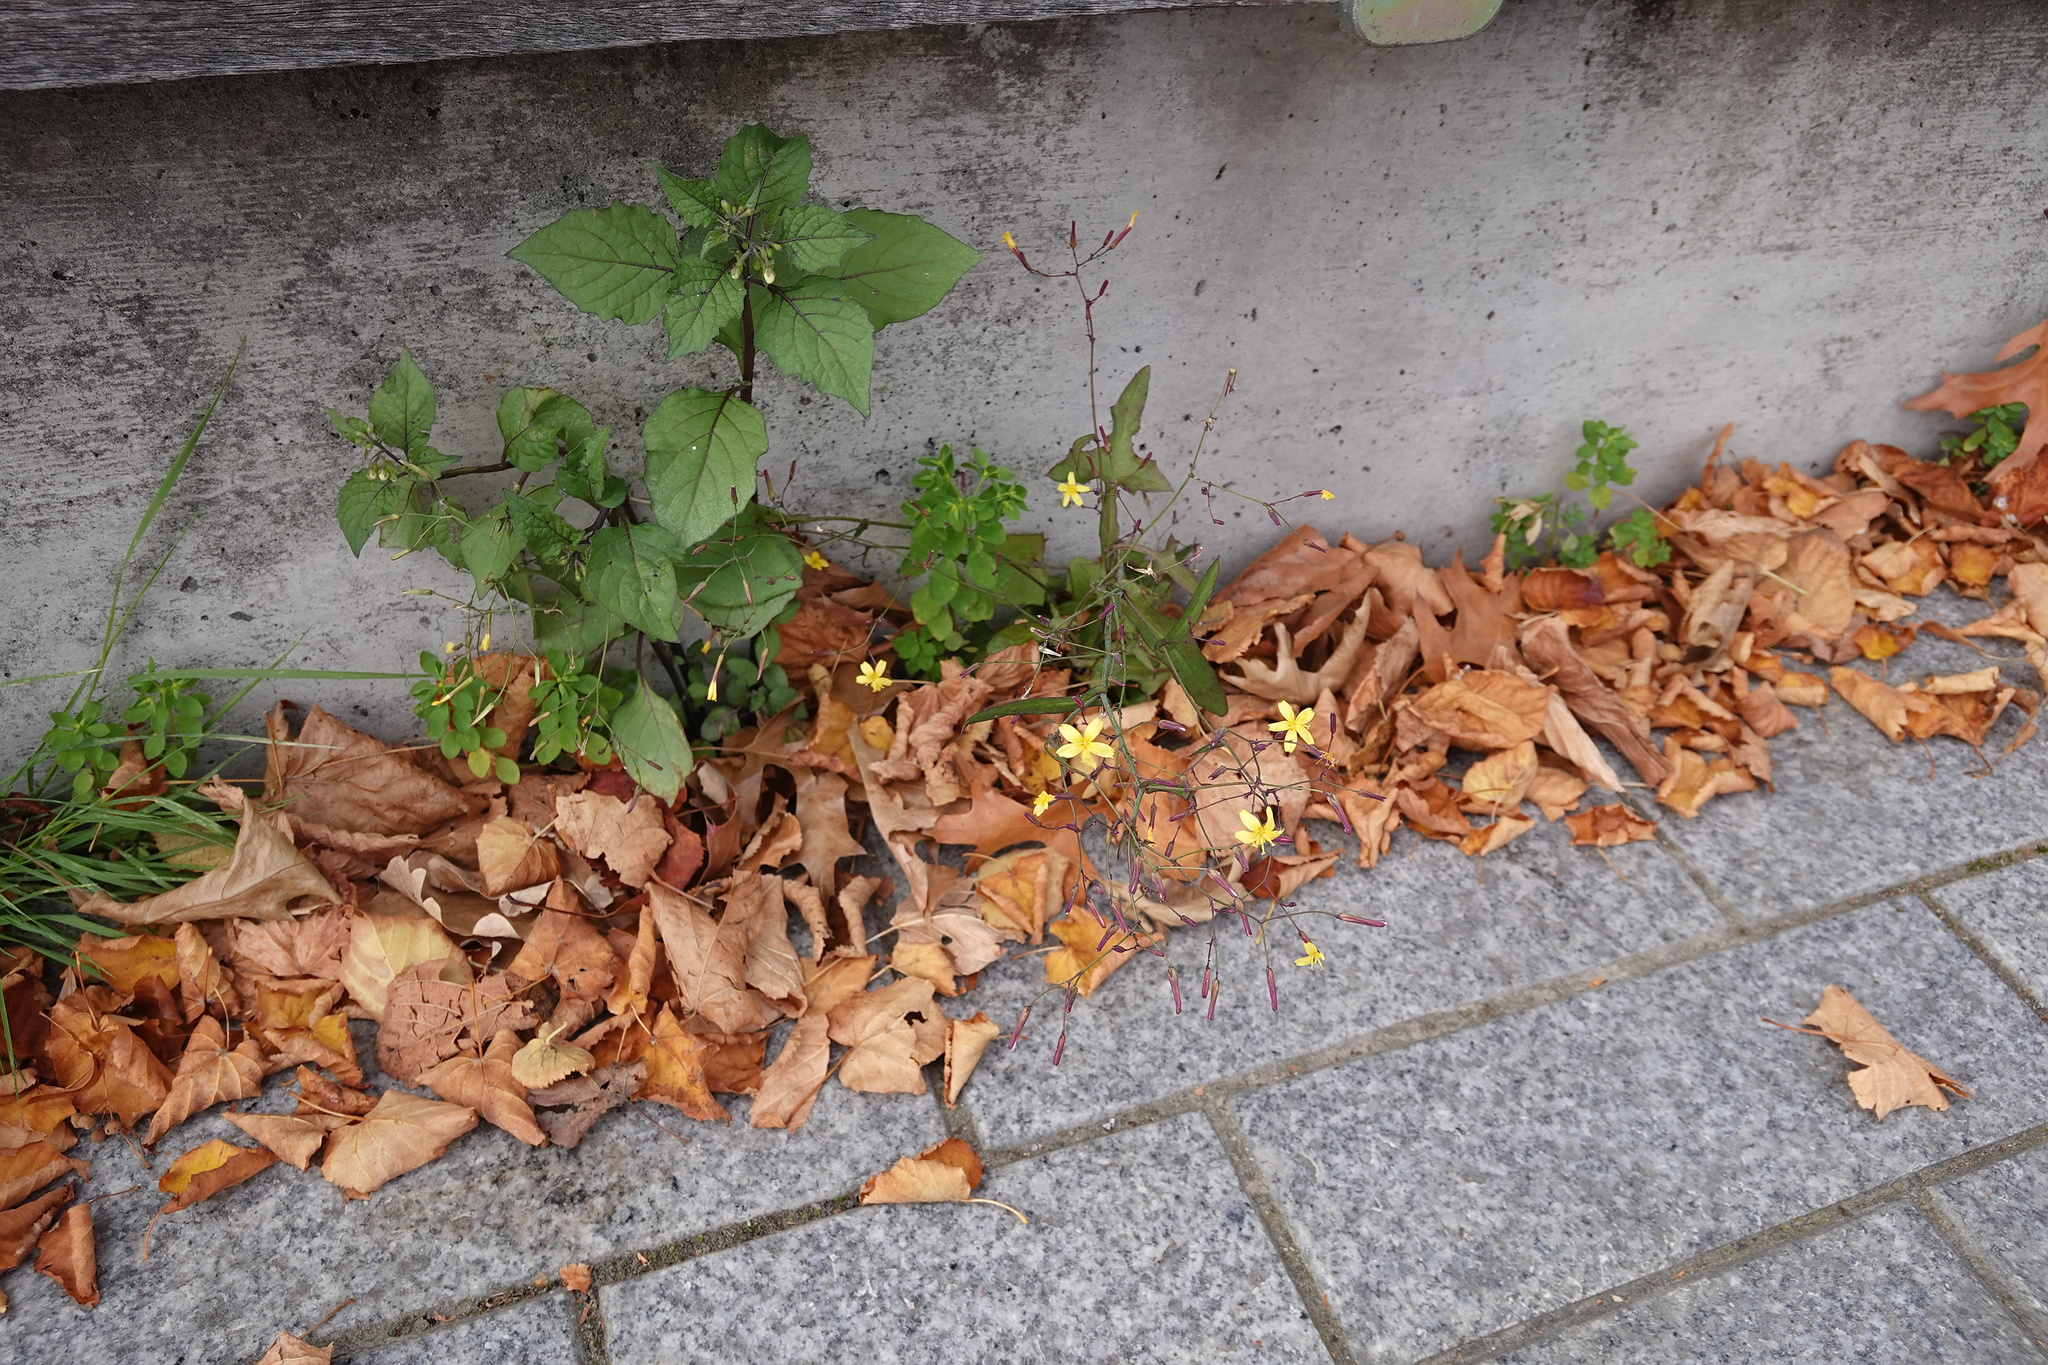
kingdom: Plantae
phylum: Tracheophyta
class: Magnoliopsida
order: Asterales
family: Asteraceae
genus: Mycelis
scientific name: Mycelis muralis
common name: Wall lettuce
